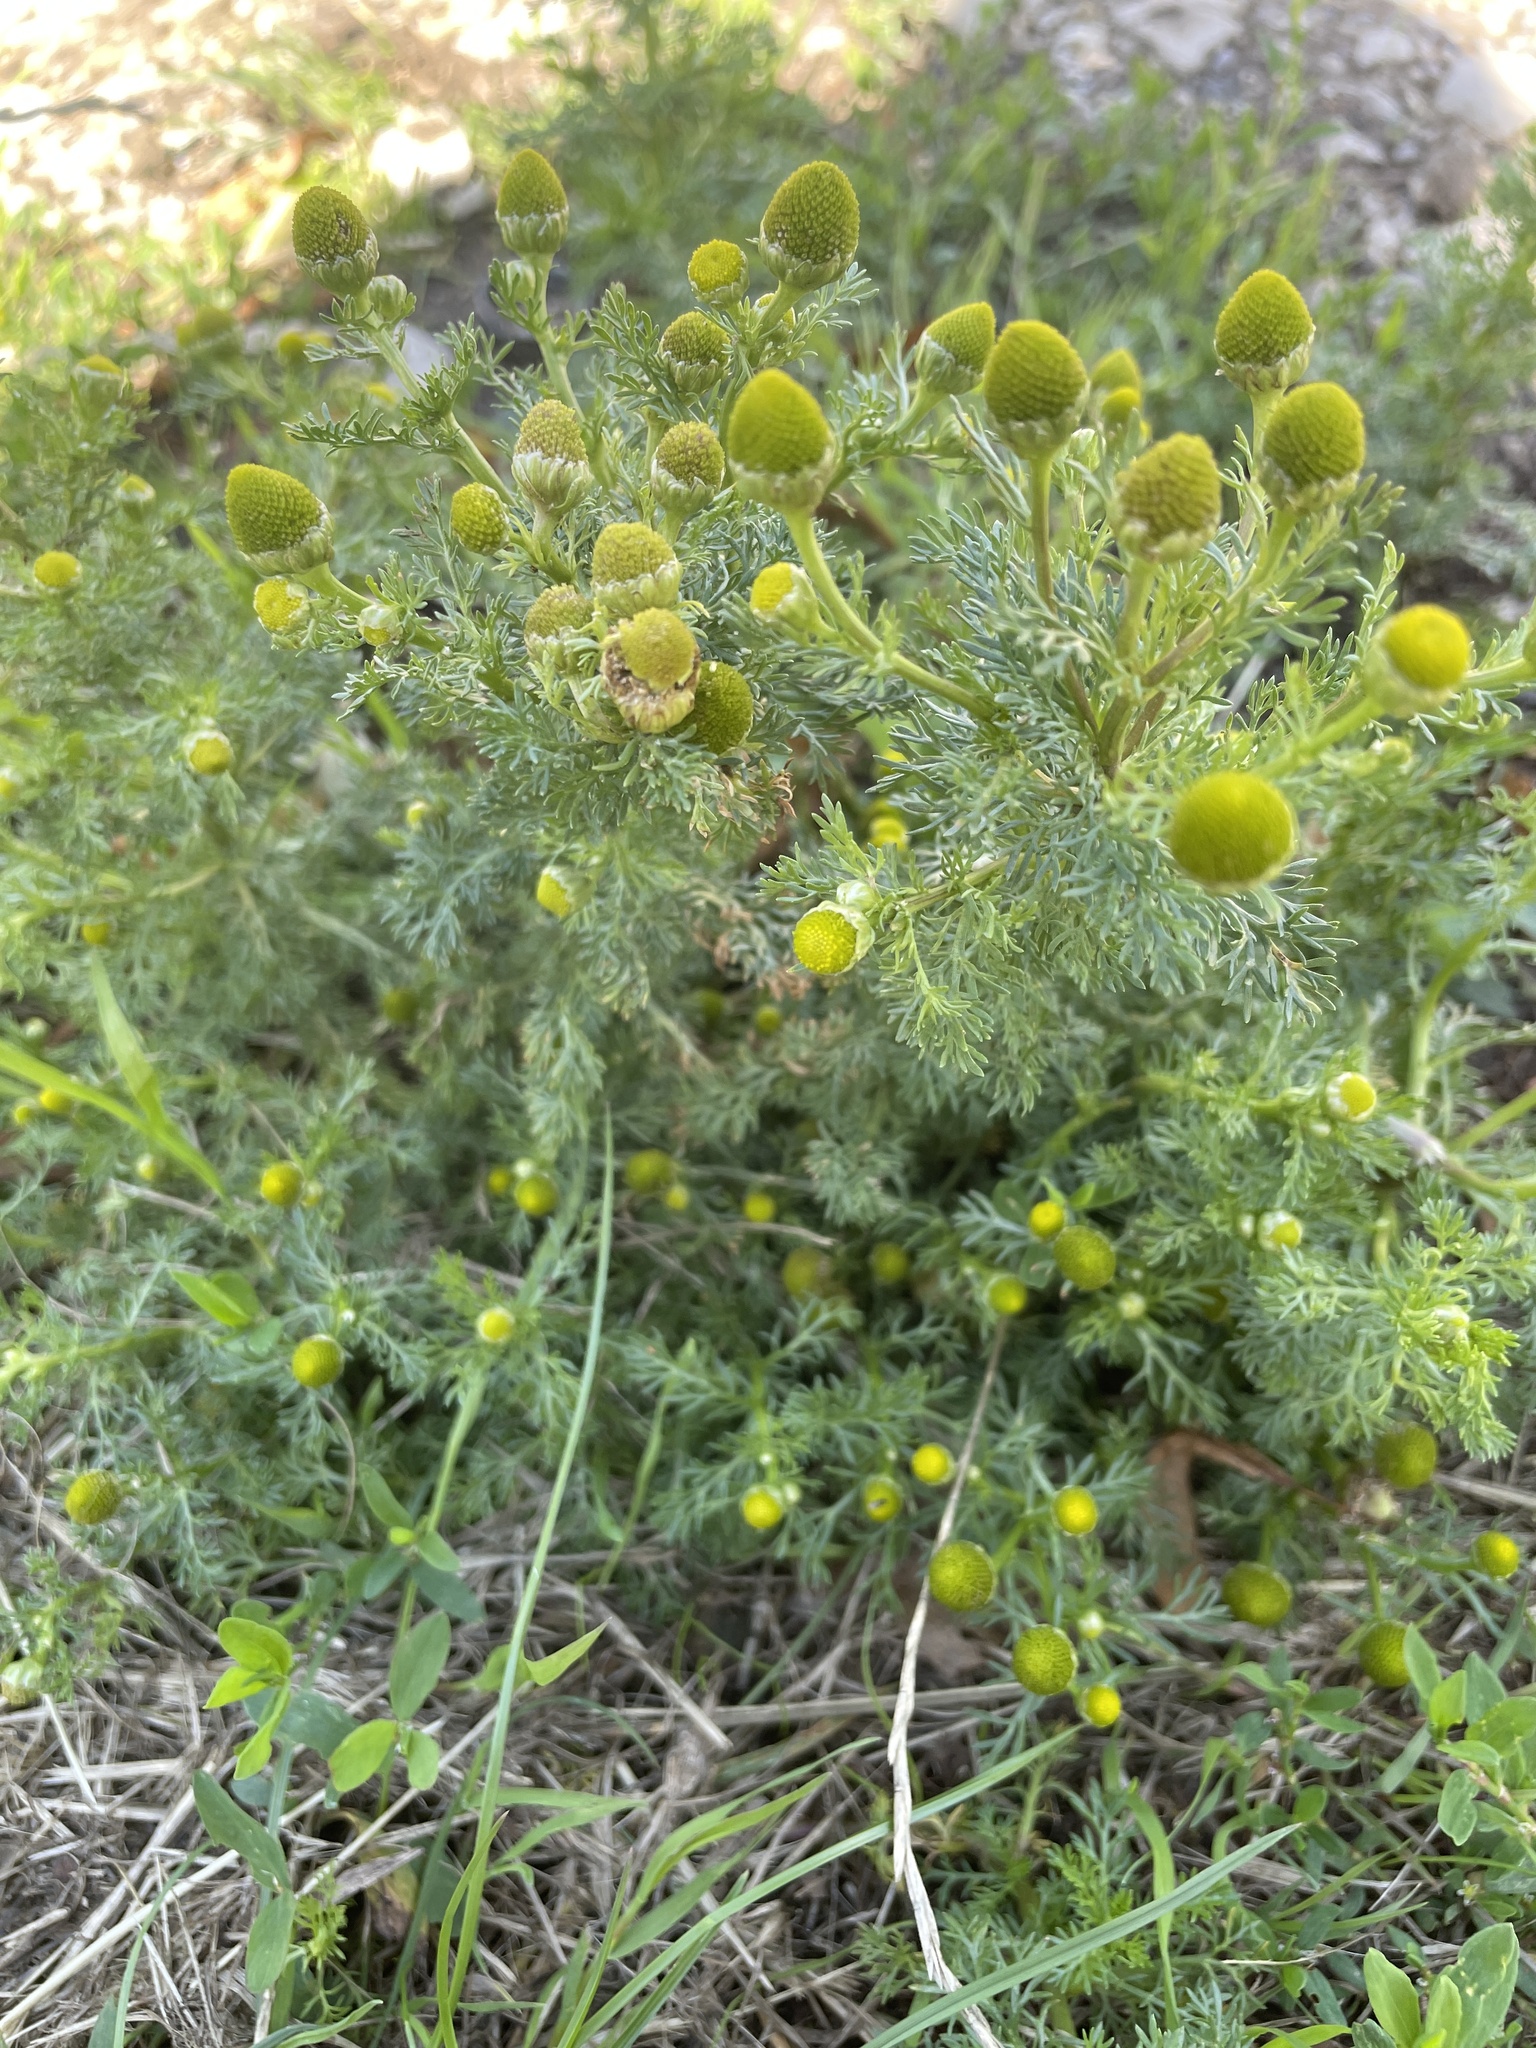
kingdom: Plantae
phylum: Tracheophyta
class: Magnoliopsida
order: Asterales
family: Asteraceae
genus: Matricaria
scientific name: Matricaria discoidea
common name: Disc mayweed
